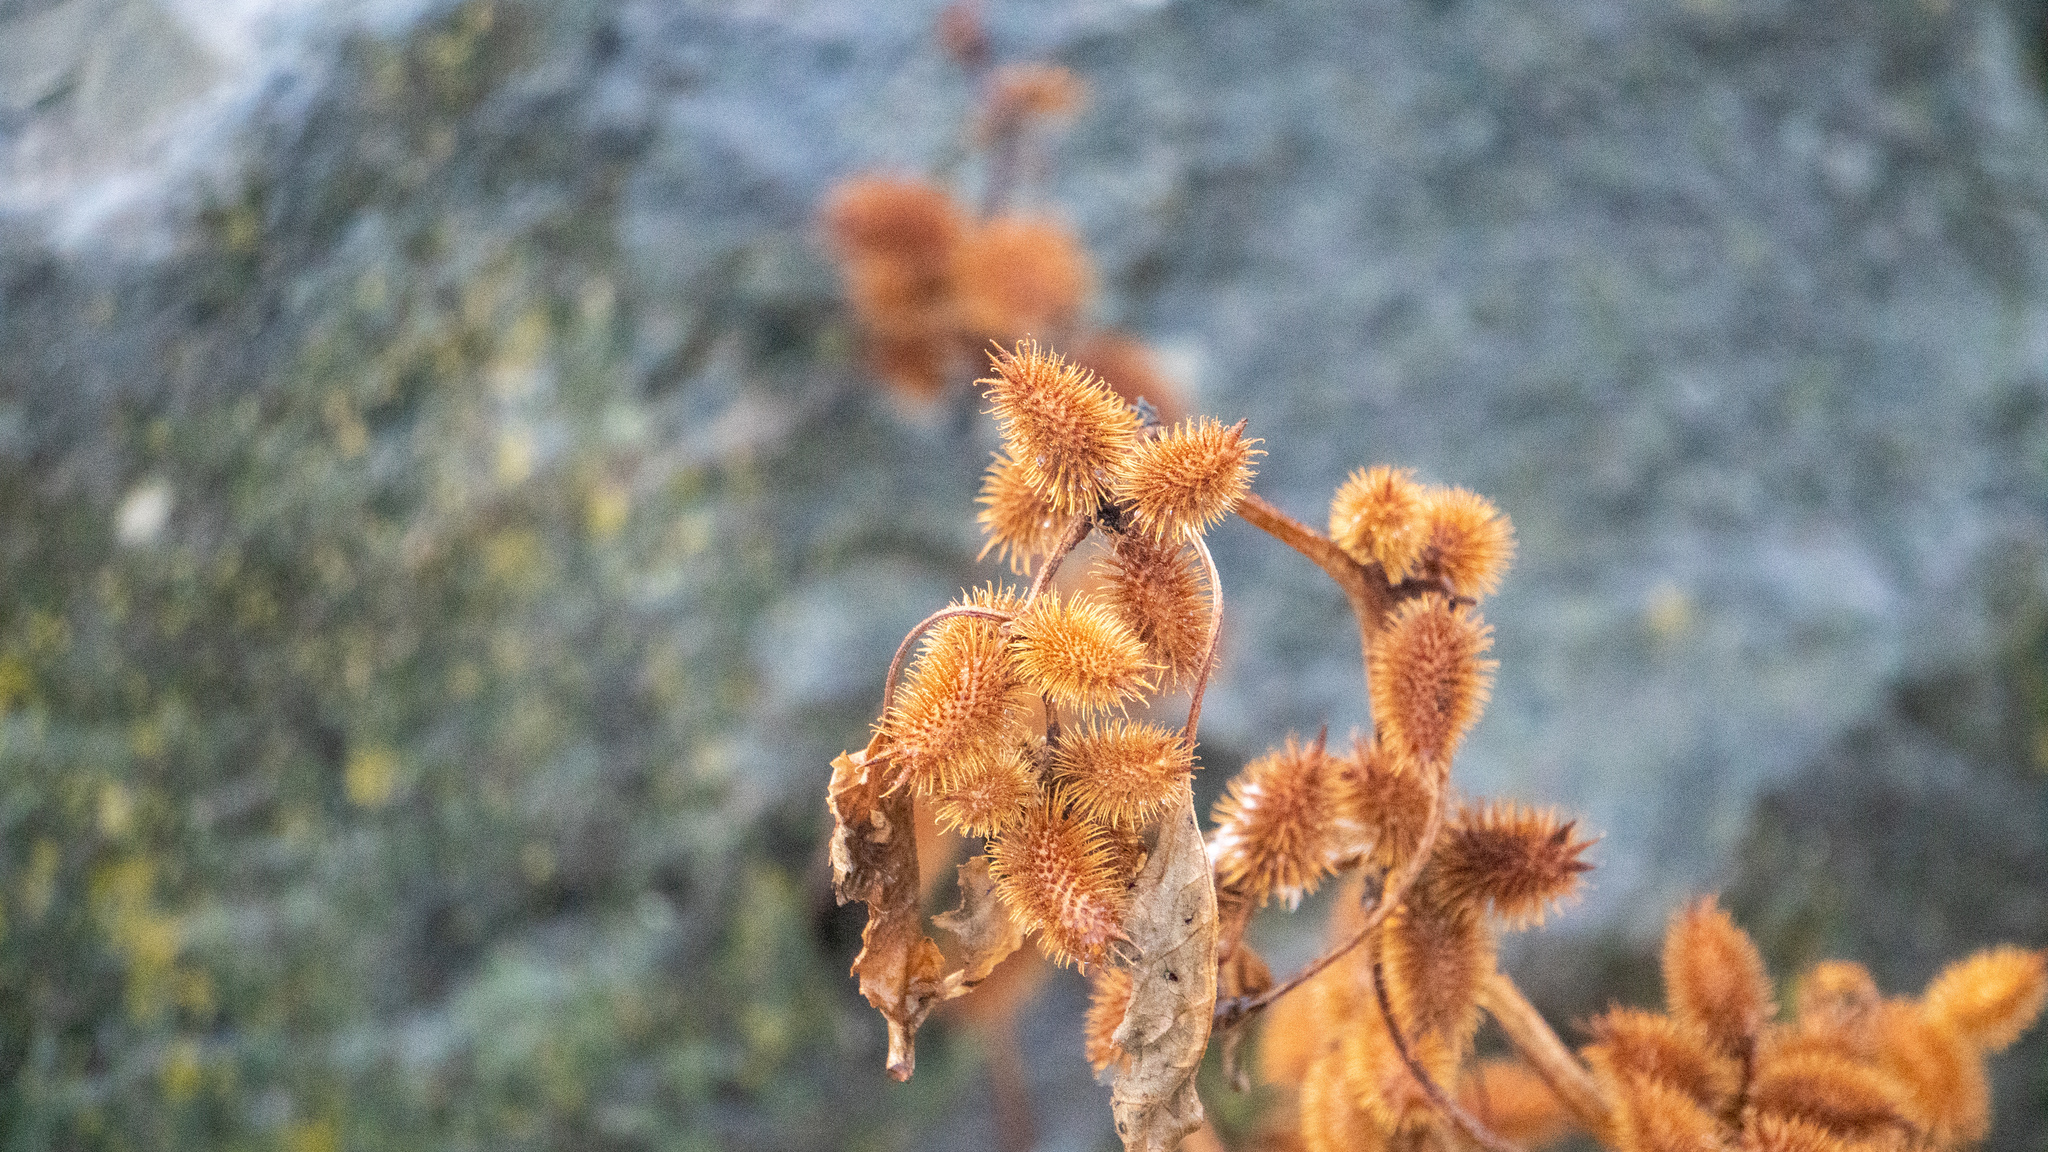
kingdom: Plantae
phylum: Tracheophyta
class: Magnoliopsida
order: Asterales
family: Asteraceae
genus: Xanthium
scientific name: Xanthium strumarium
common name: Rough cocklebur
